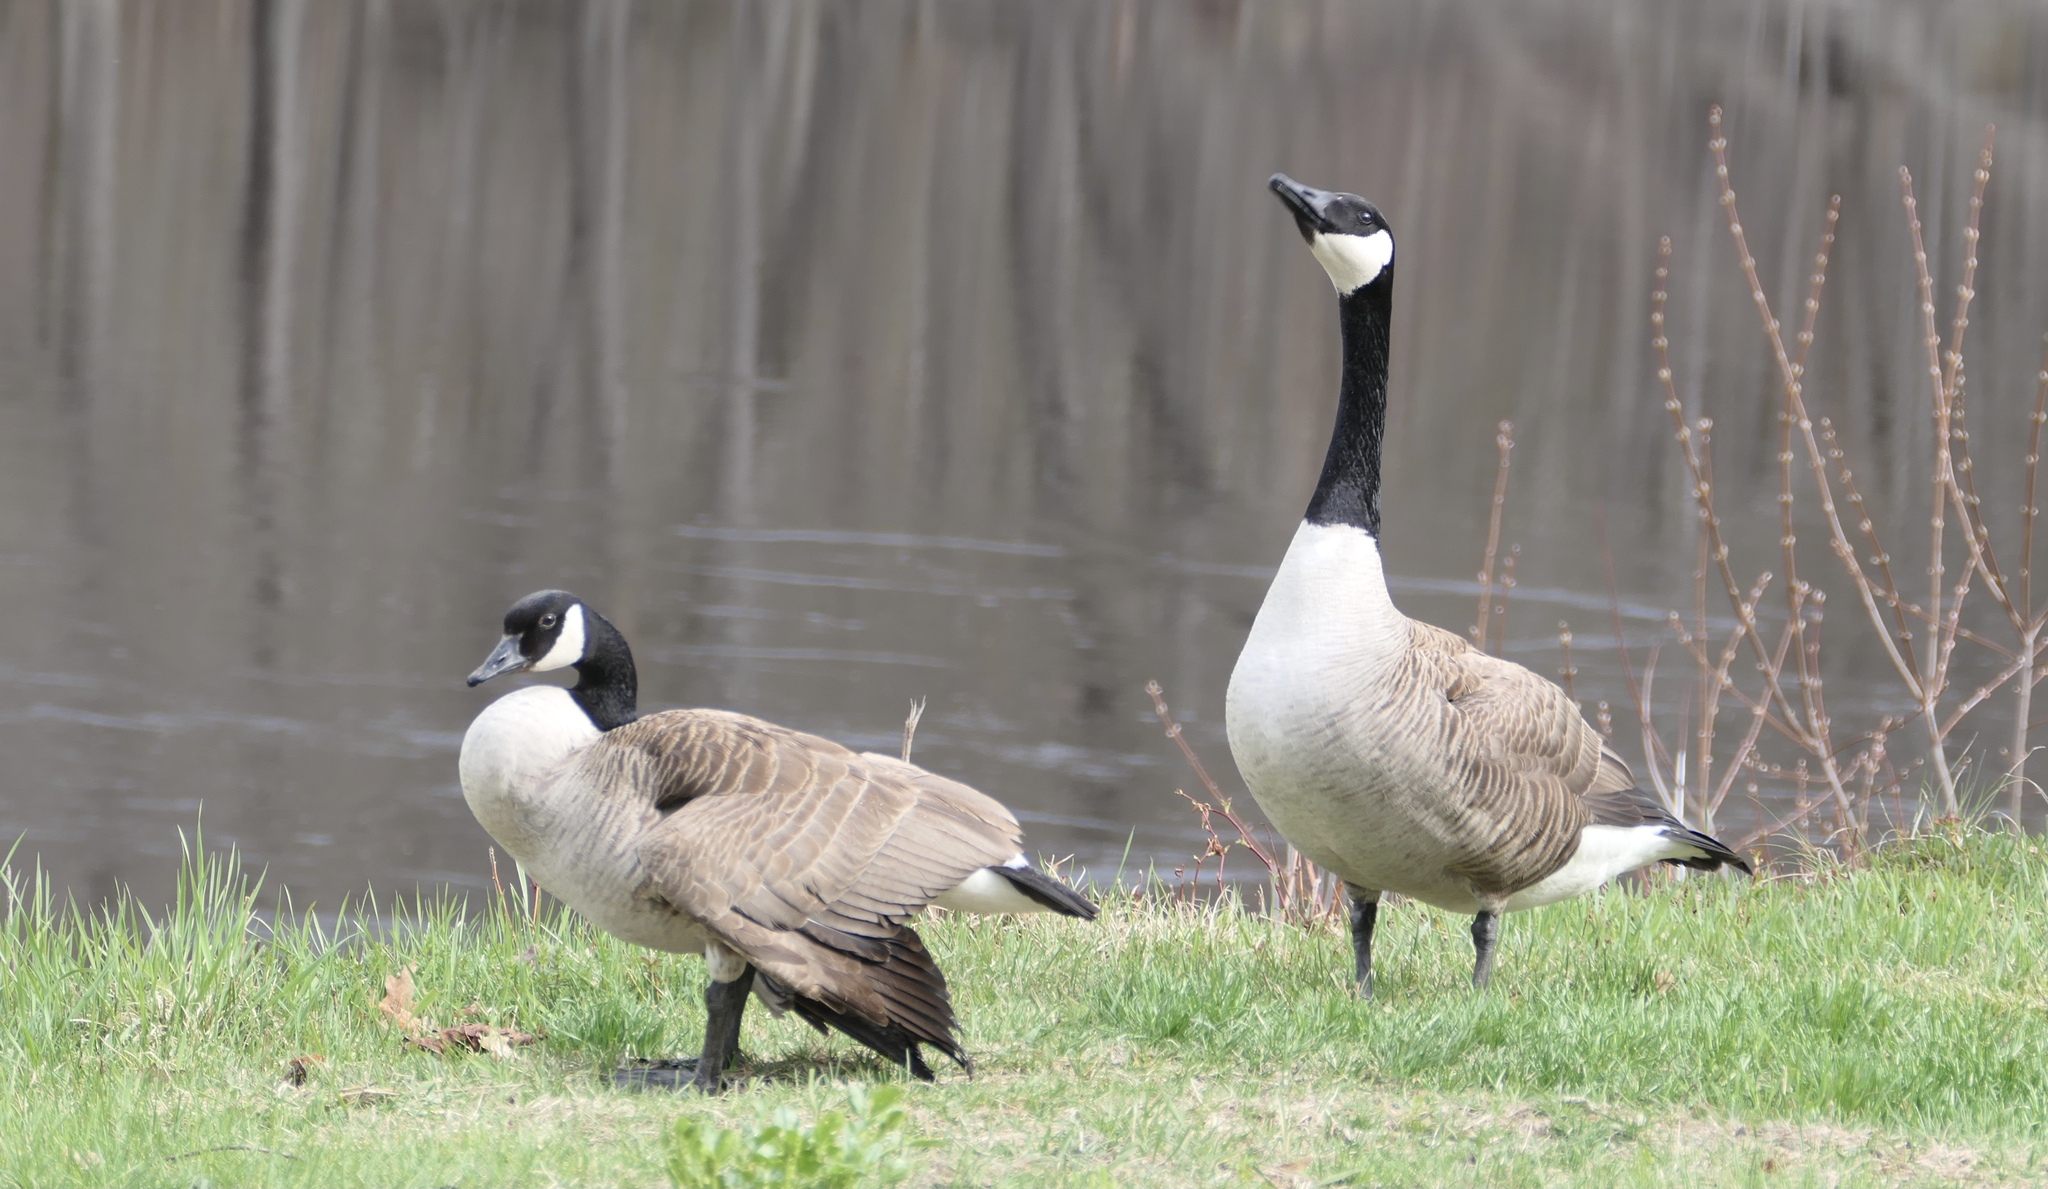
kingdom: Animalia
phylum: Chordata
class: Aves
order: Anseriformes
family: Anatidae
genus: Branta
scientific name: Branta canadensis
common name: Canada goose
